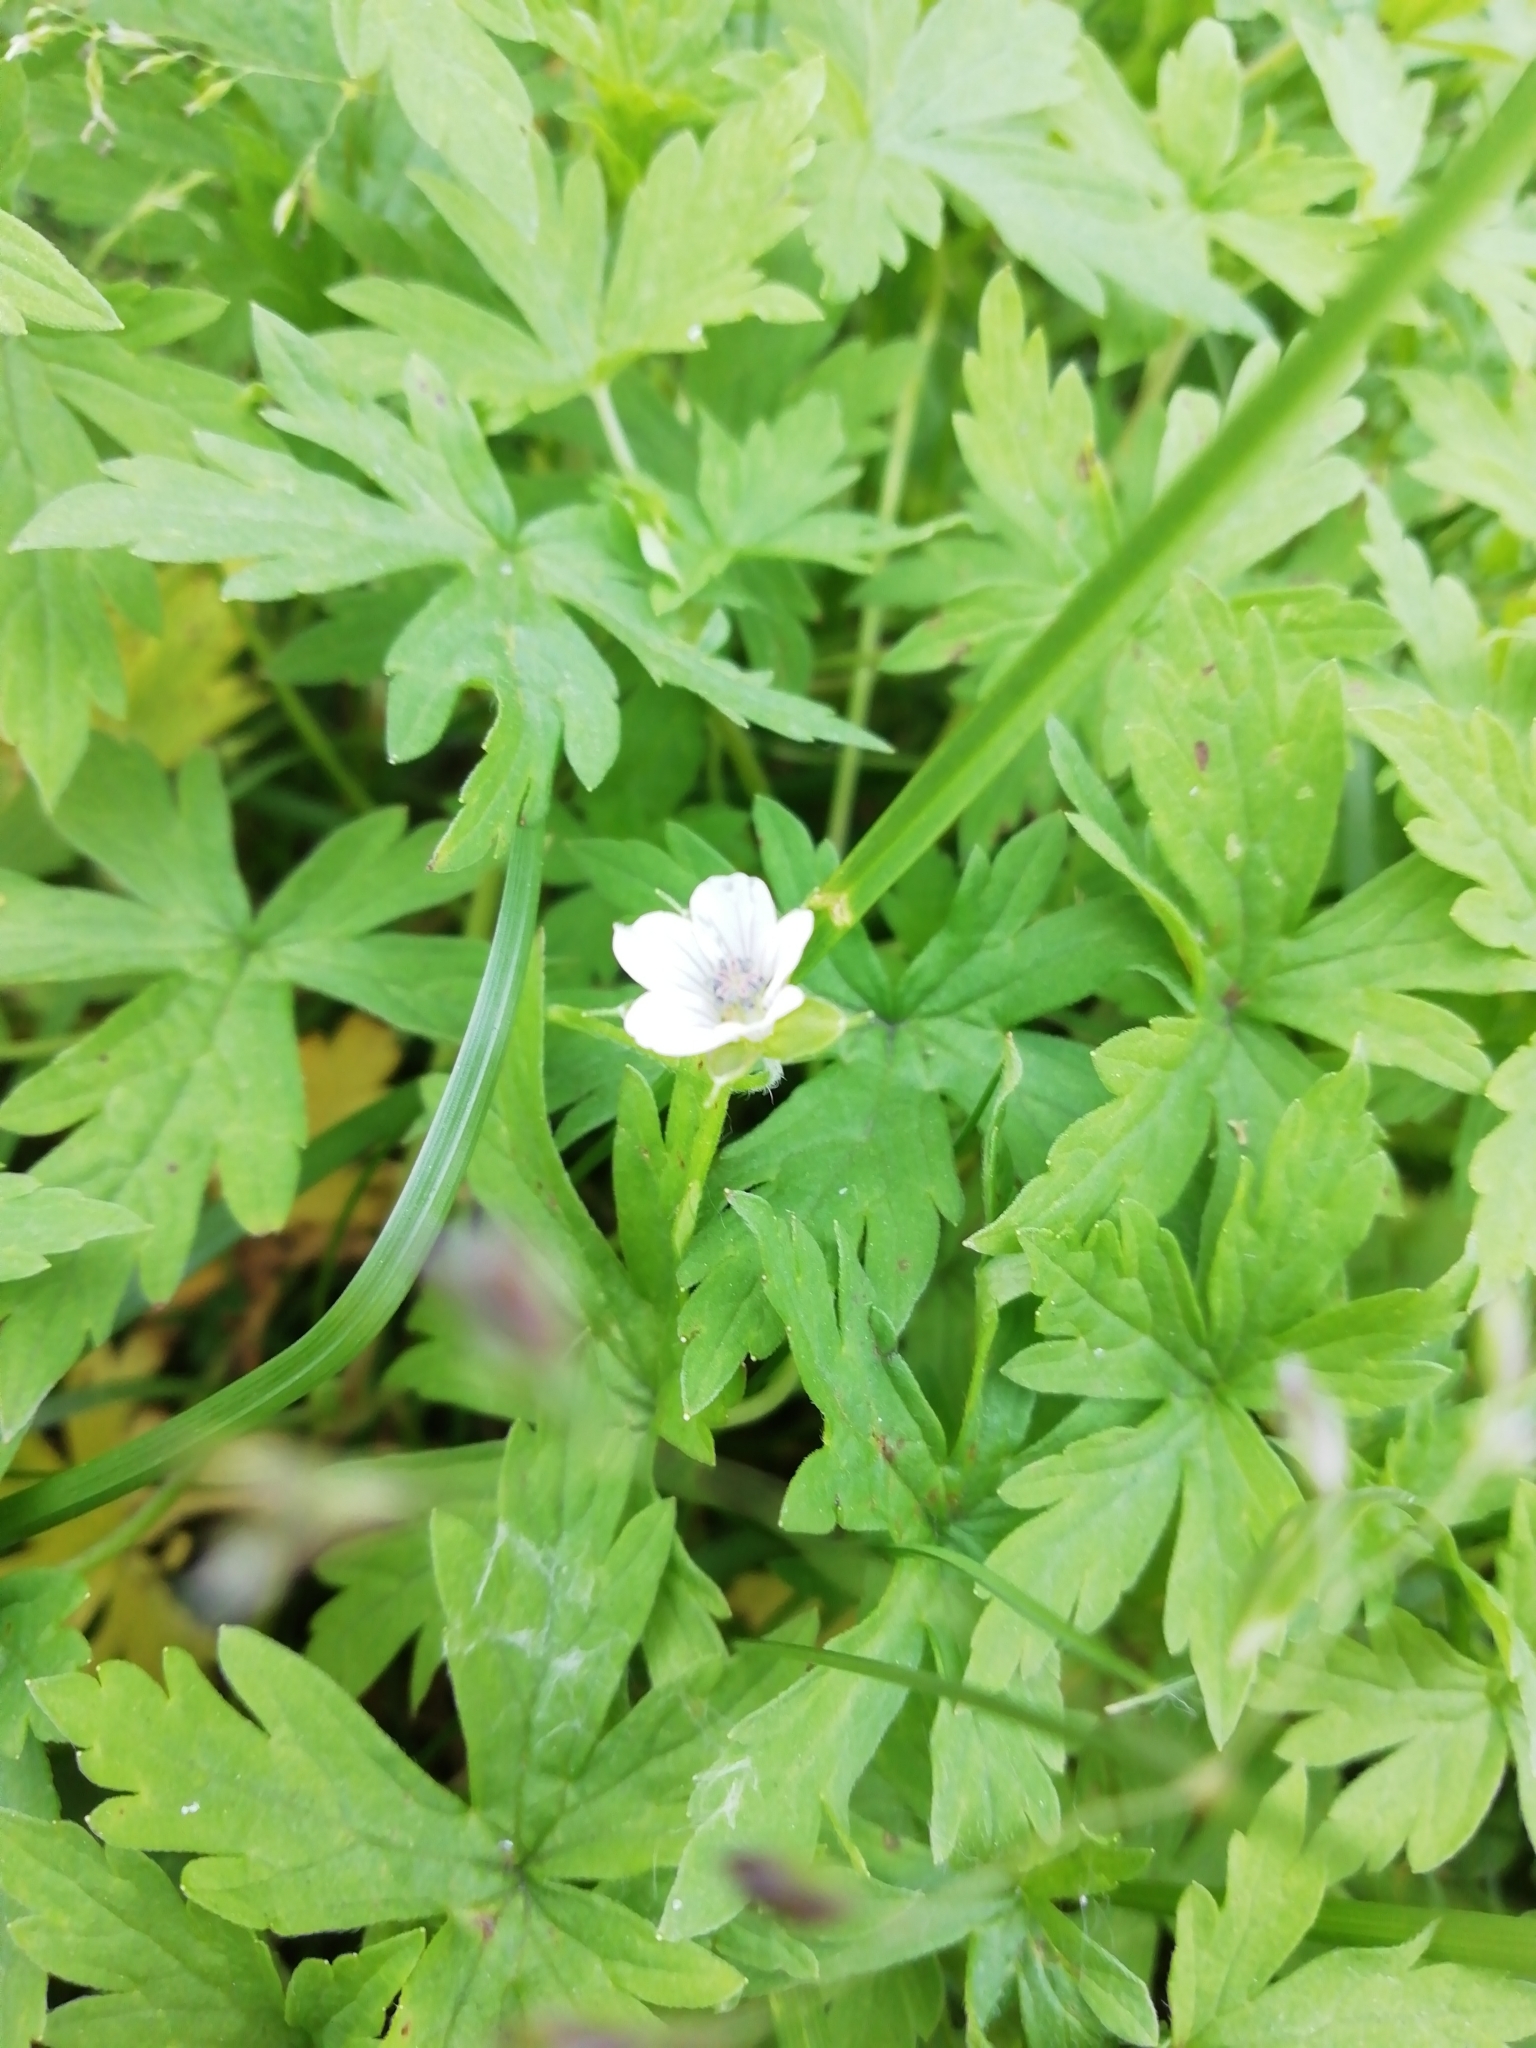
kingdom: Plantae
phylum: Tracheophyta
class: Magnoliopsida
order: Geraniales
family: Geraniaceae
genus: Geranium
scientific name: Geranium sibiricum
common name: Siberian crane's-bill
